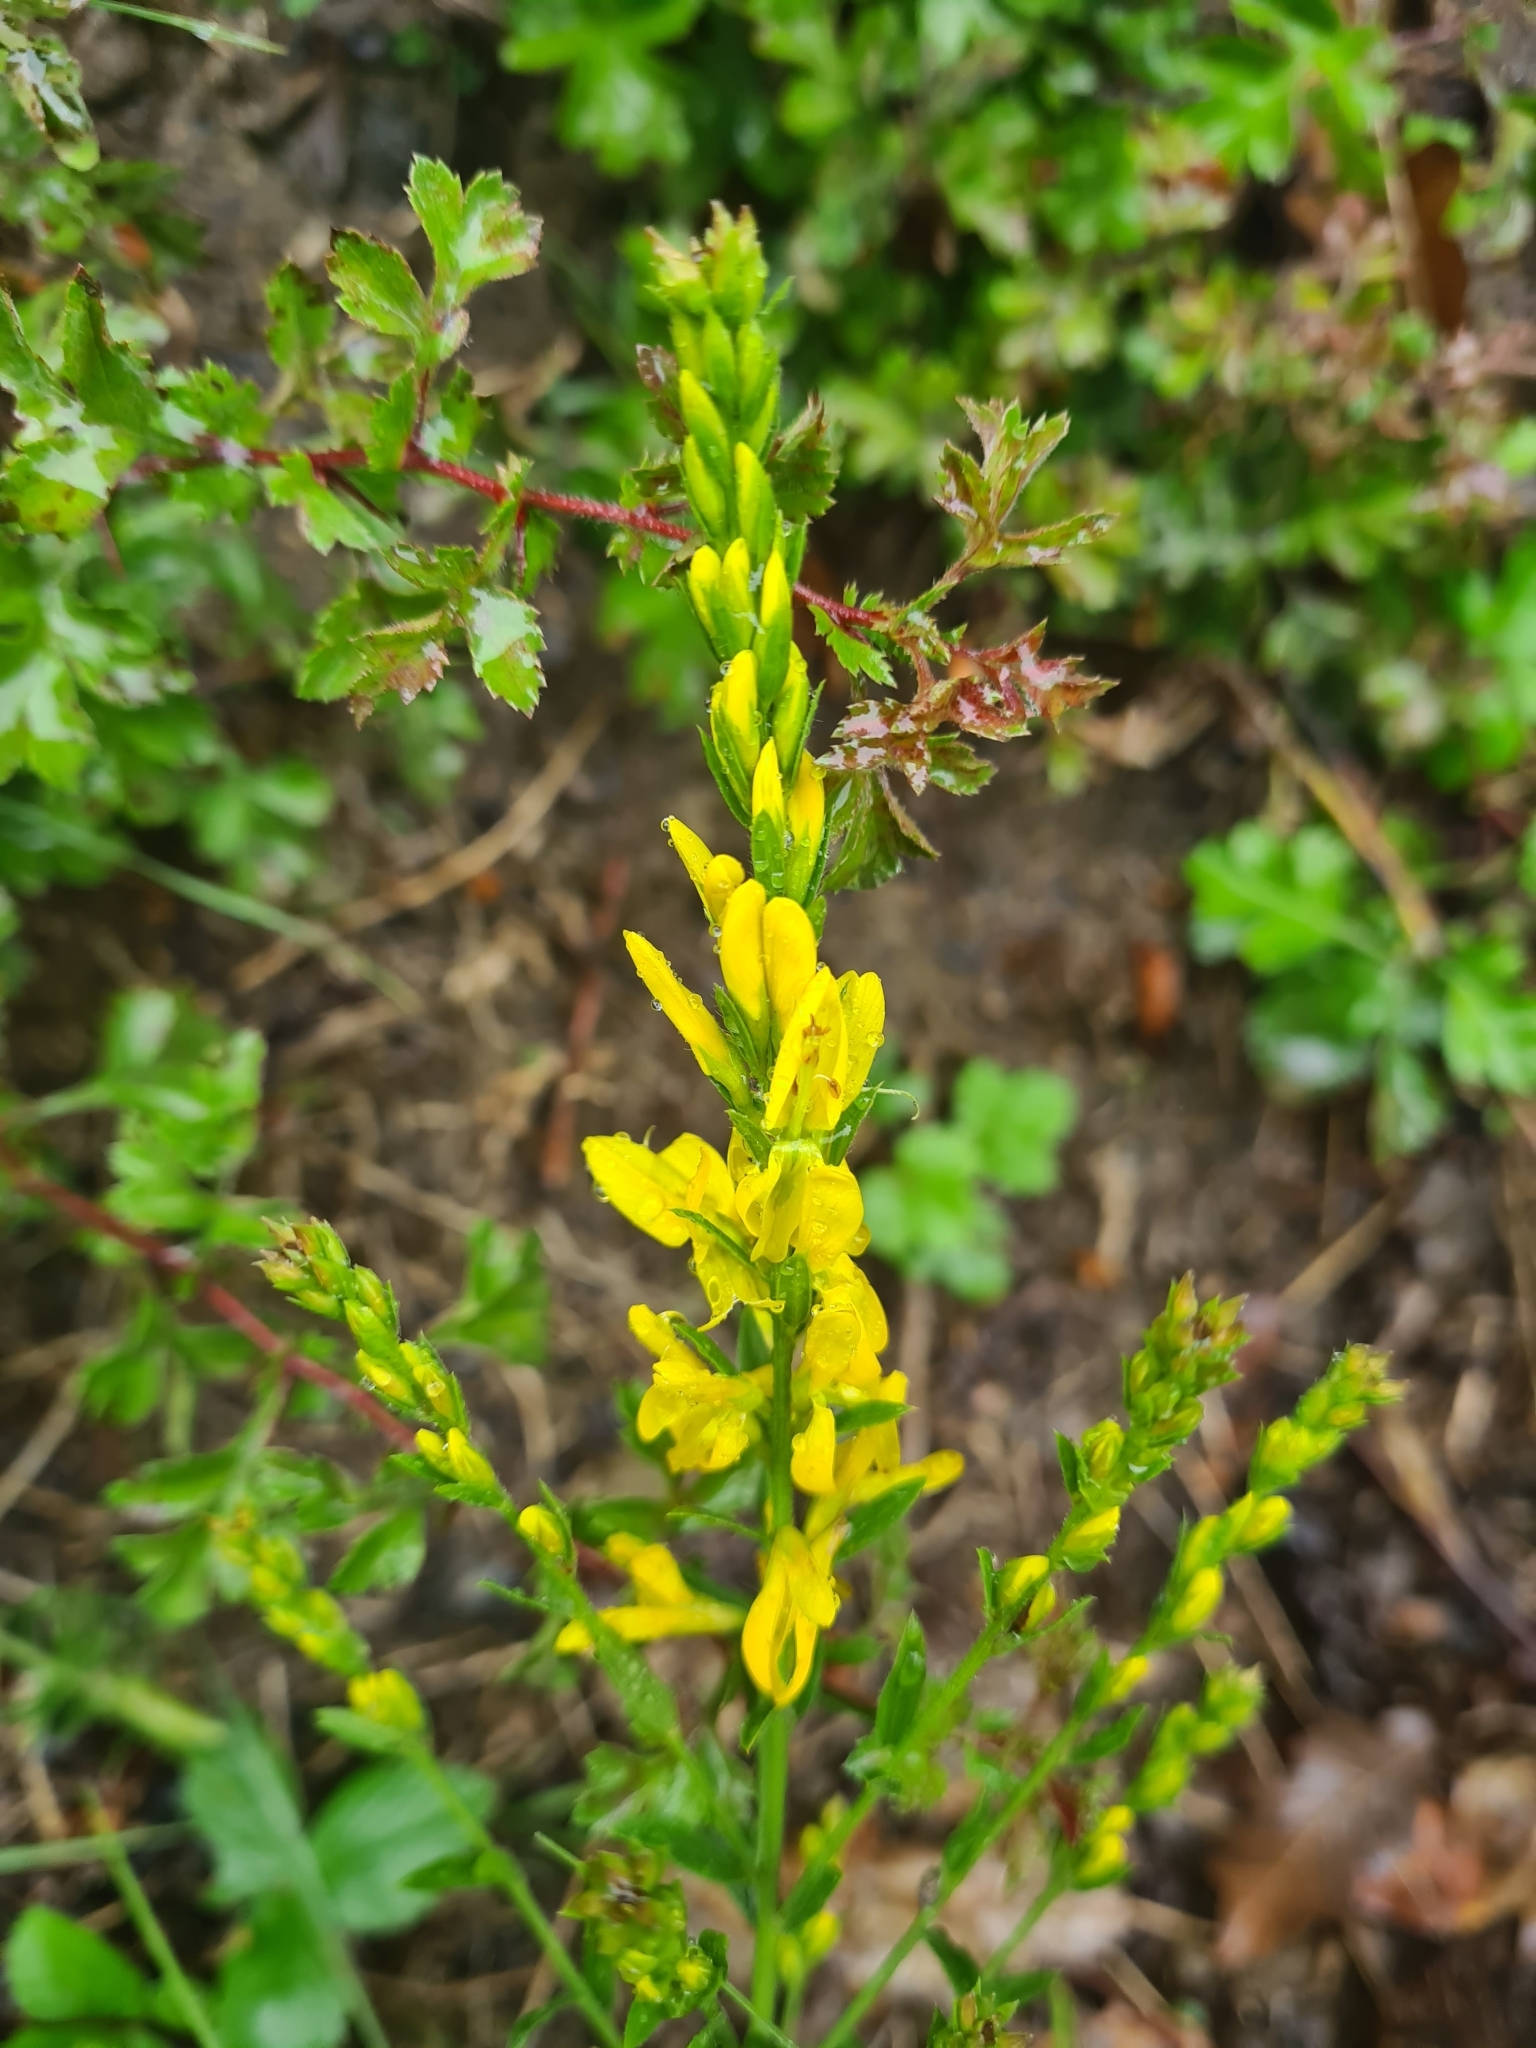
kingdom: Plantae
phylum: Tracheophyta
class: Magnoliopsida
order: Fabales
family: Fabaceae
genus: Genista
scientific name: Genista tinctoria
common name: Dyer's greenweed
